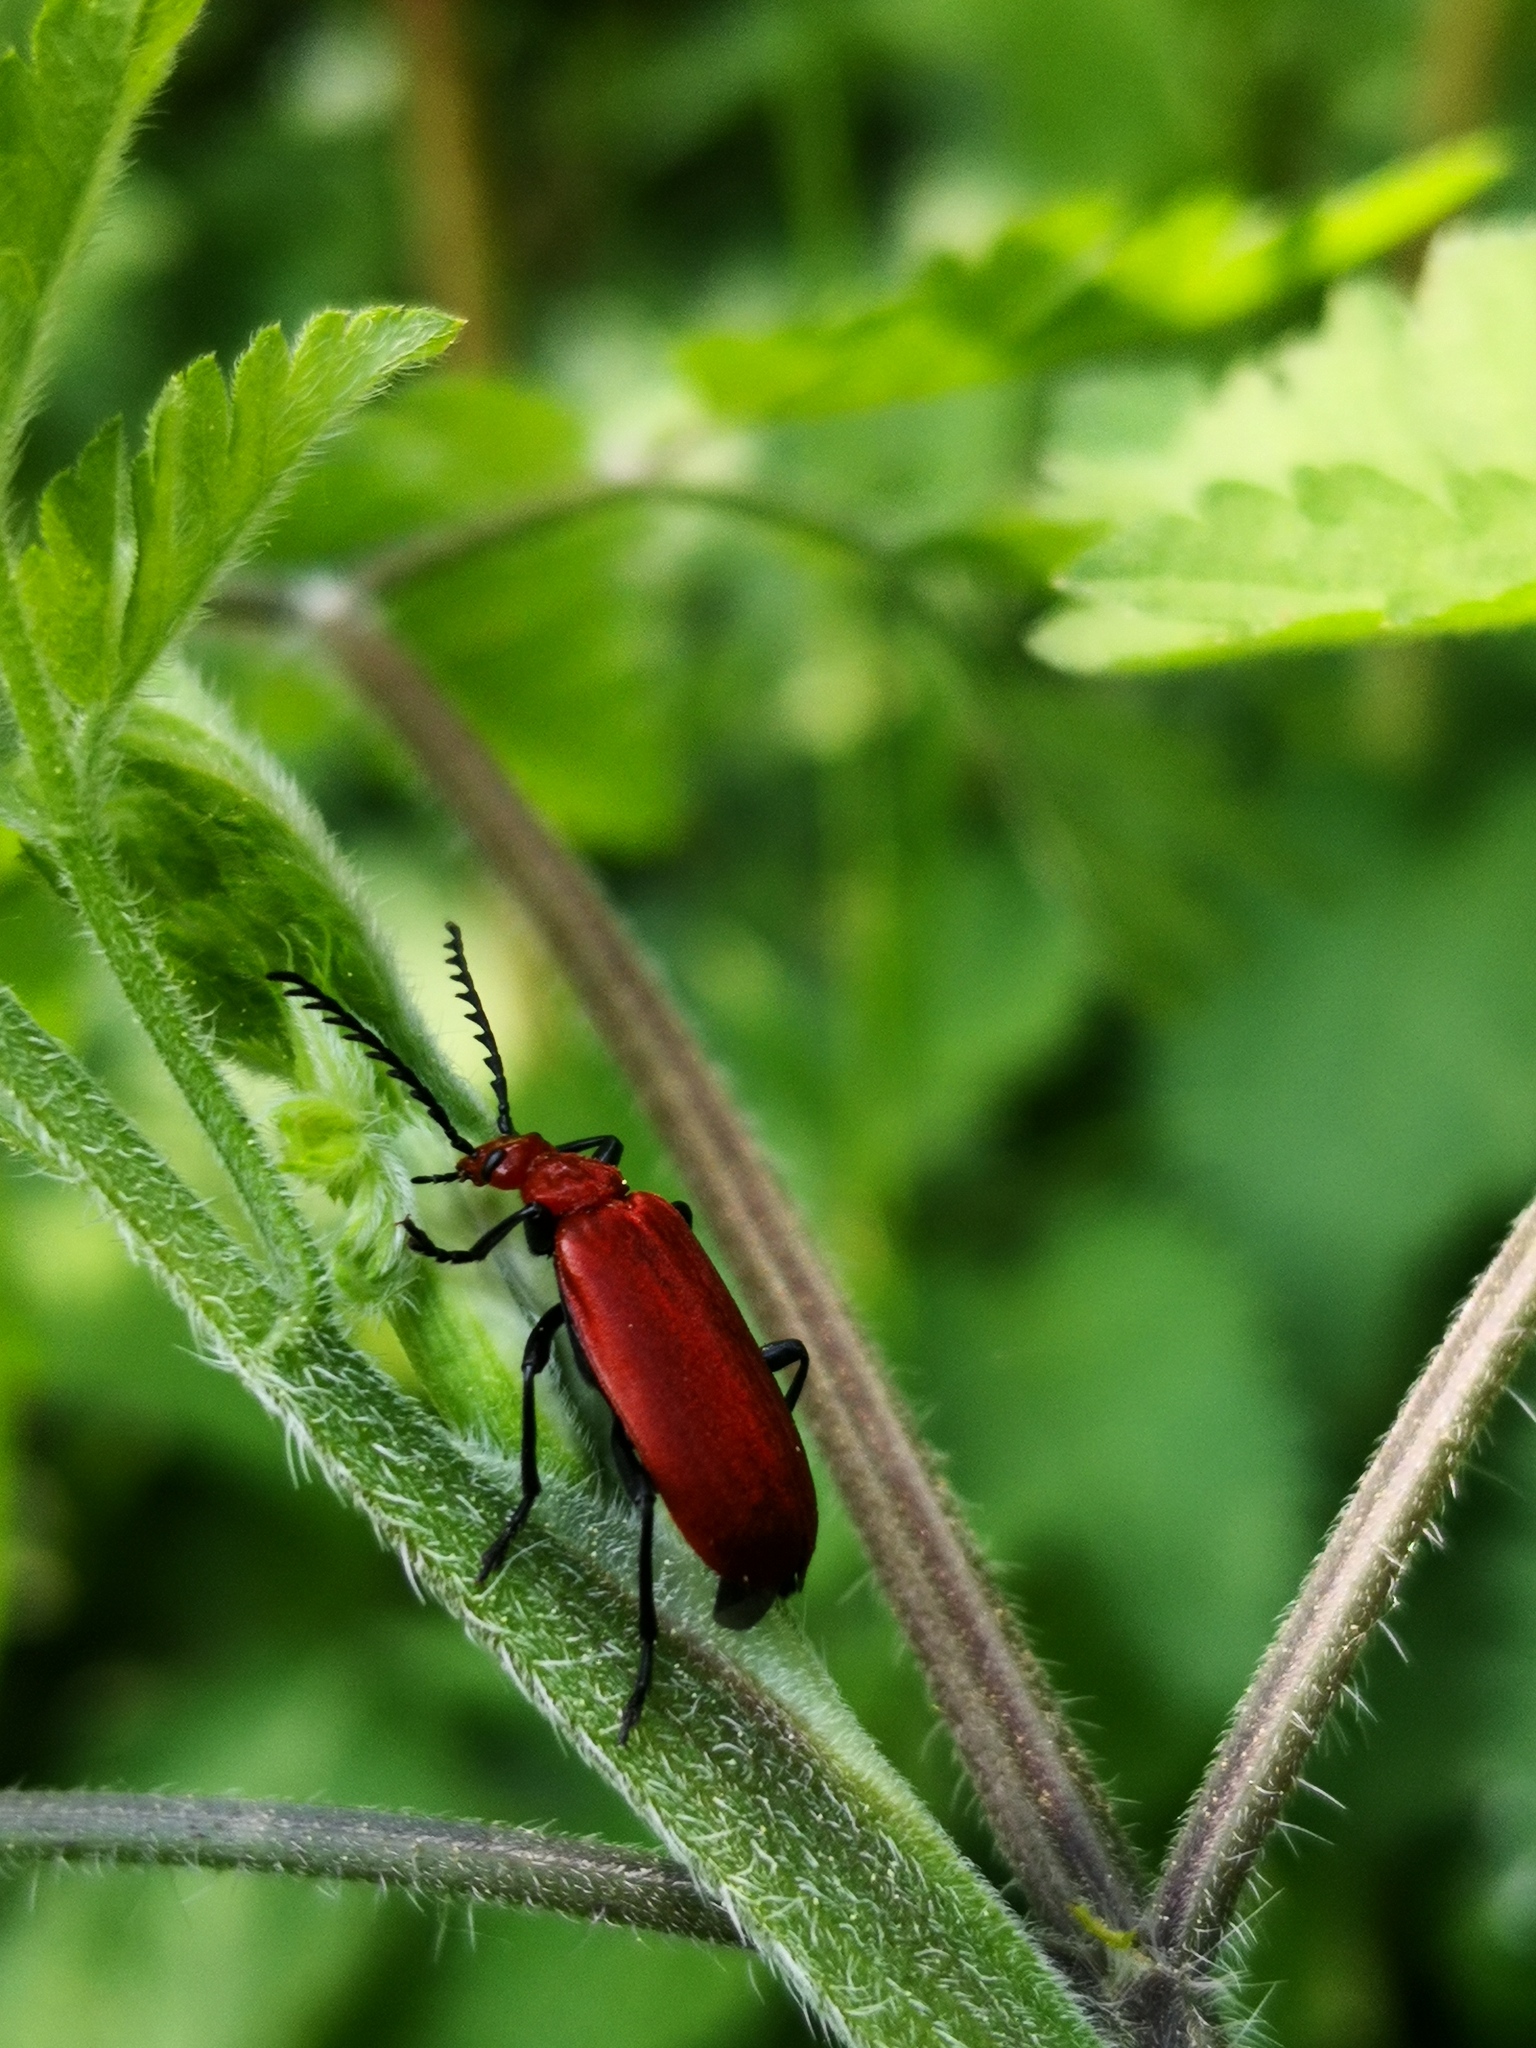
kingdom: Animalia
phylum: Arthropoda
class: Insecta
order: Coleoptera
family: Pyrochroidae
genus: Pyrochroa
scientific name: Pyrochroa serraticornis
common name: Red-headed cardinal beetle
